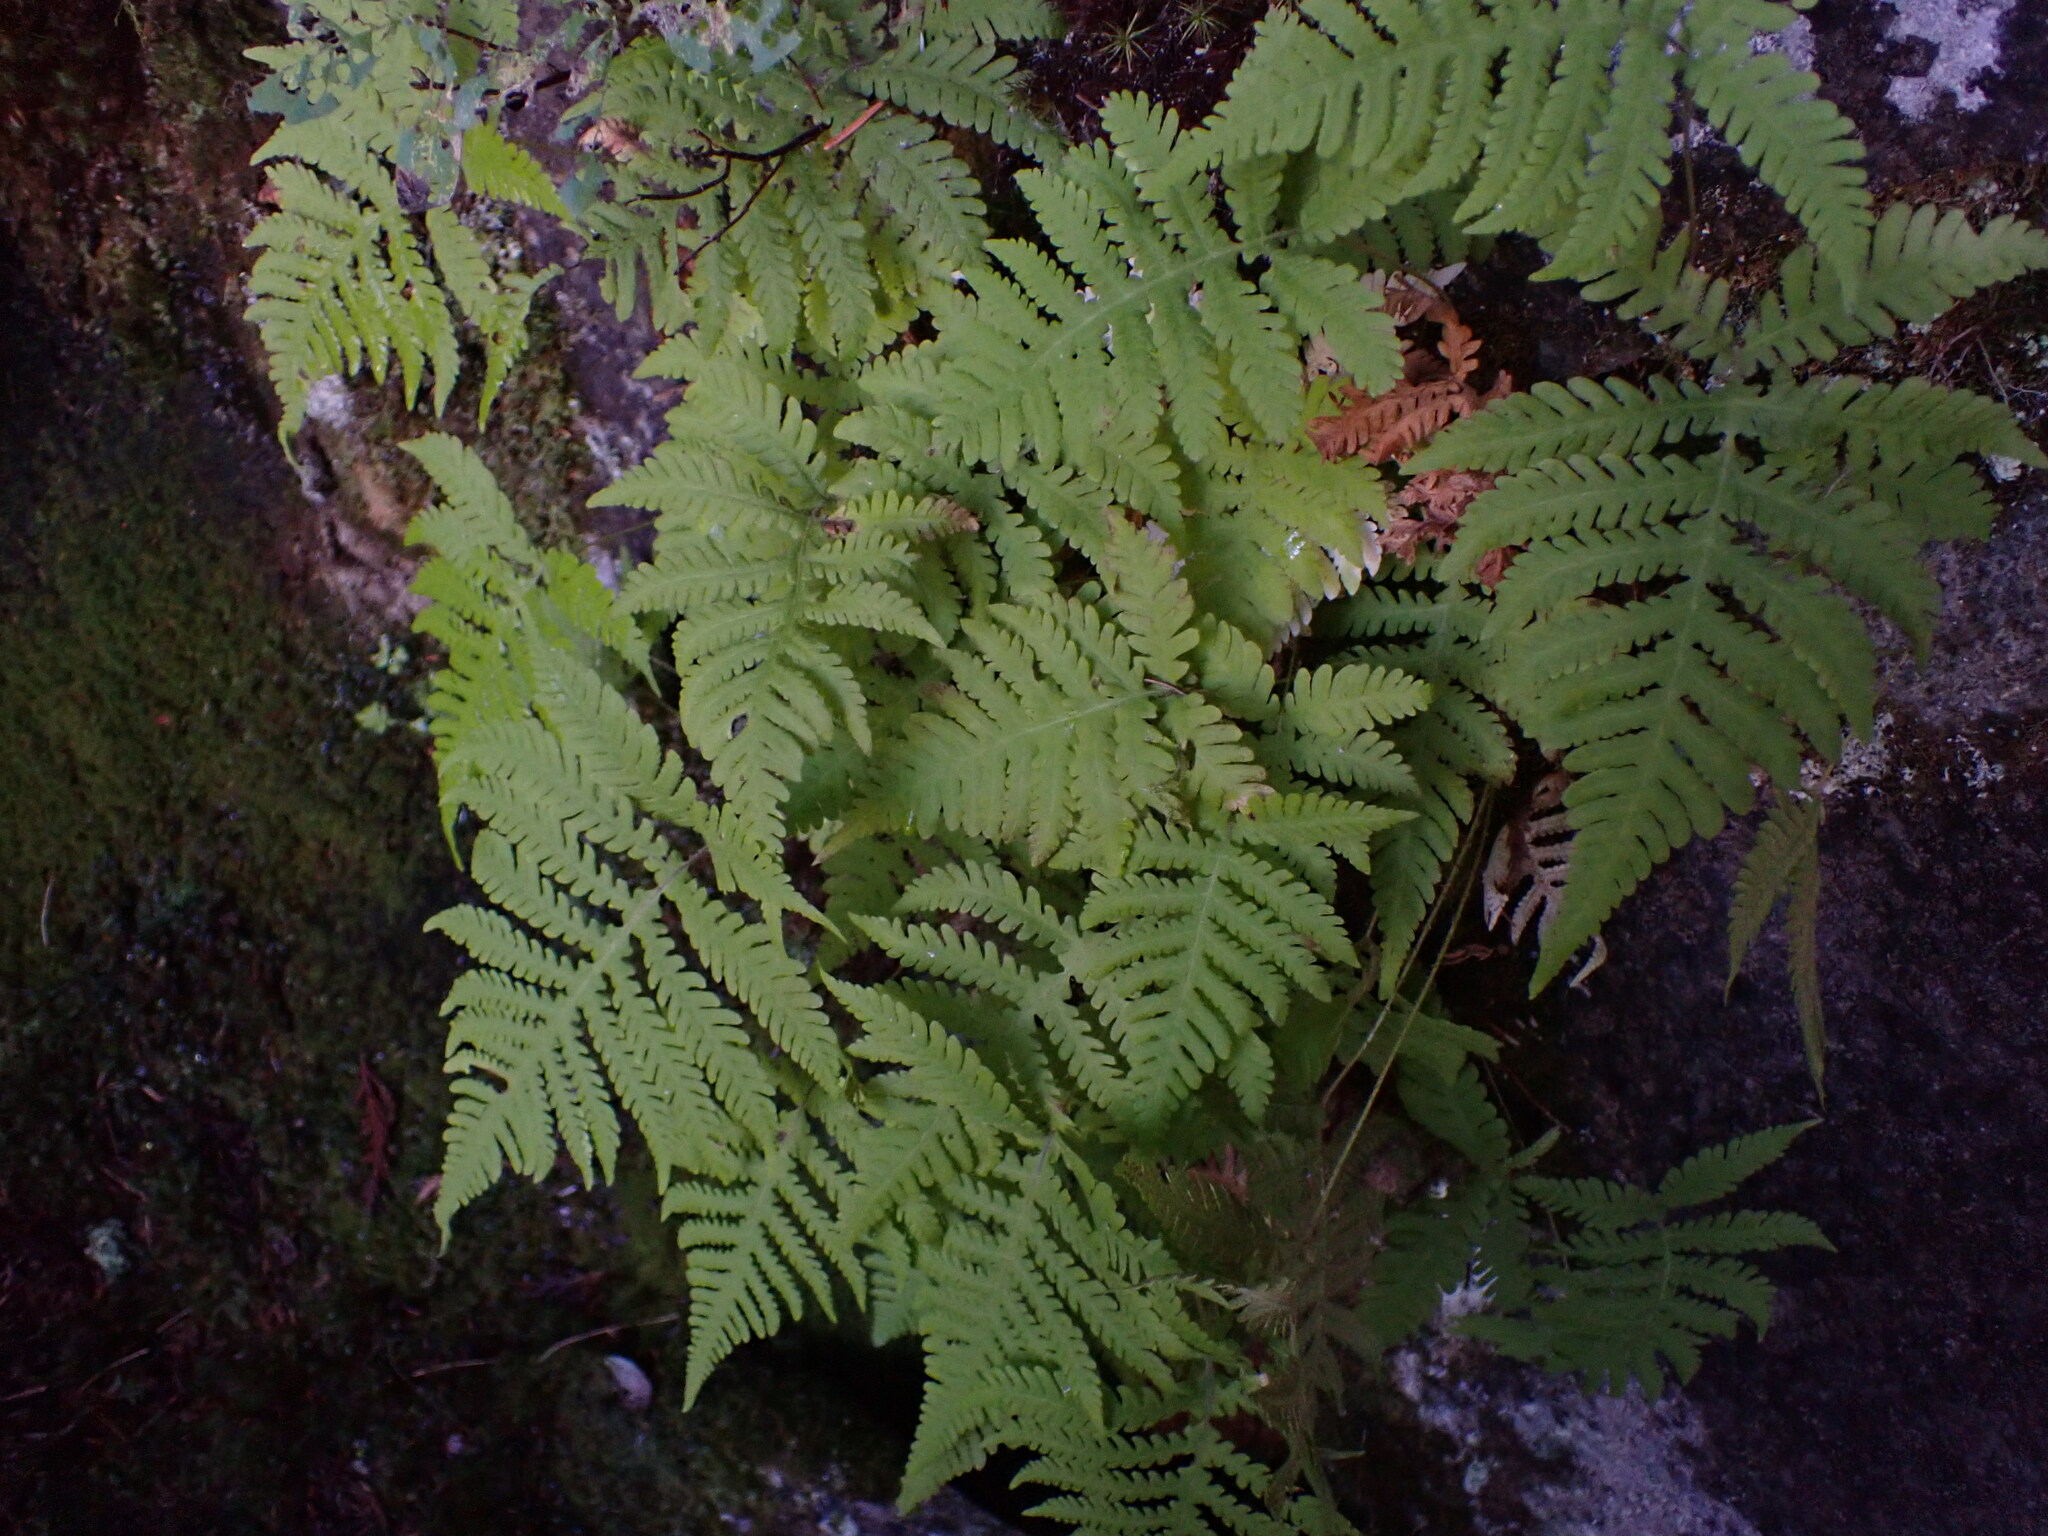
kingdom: Plantae
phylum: Tracheophyta
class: Polypodiopsida
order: Polypodiales
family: Thelypteridaceae
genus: Phegopteris
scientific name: Phegopteris connectilis
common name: Beech fern
